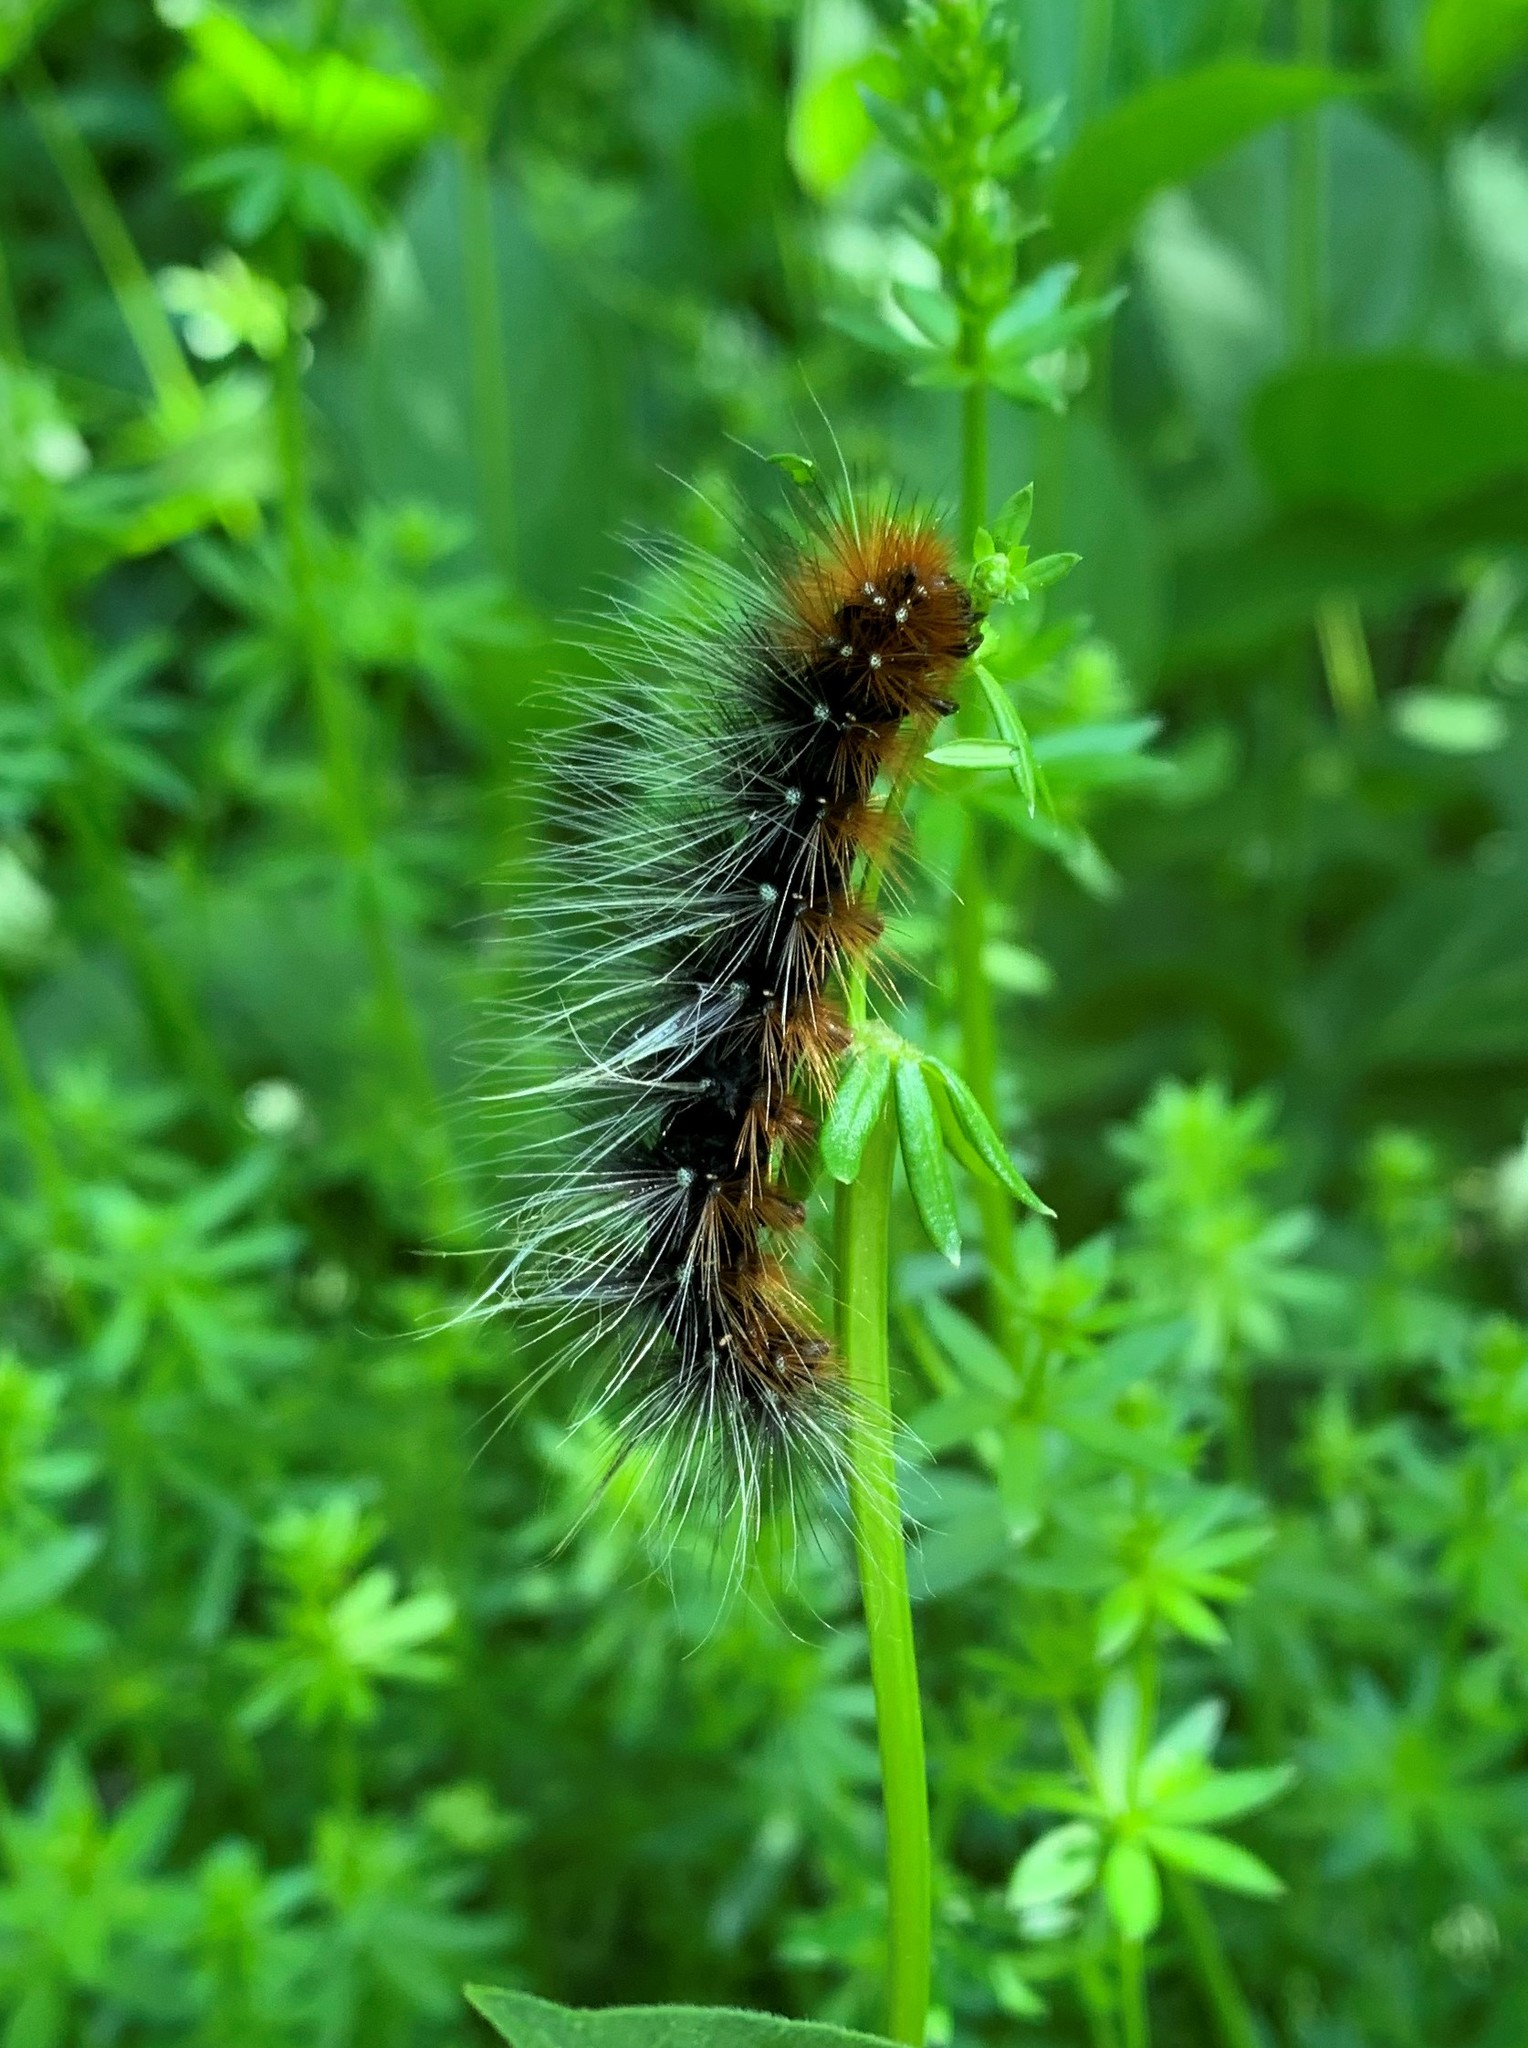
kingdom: Animalia
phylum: Arthropoda
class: Insecta
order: Lepidoptera
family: Erebidae
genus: Arctia
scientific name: Arctia caja
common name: Garden tiger
